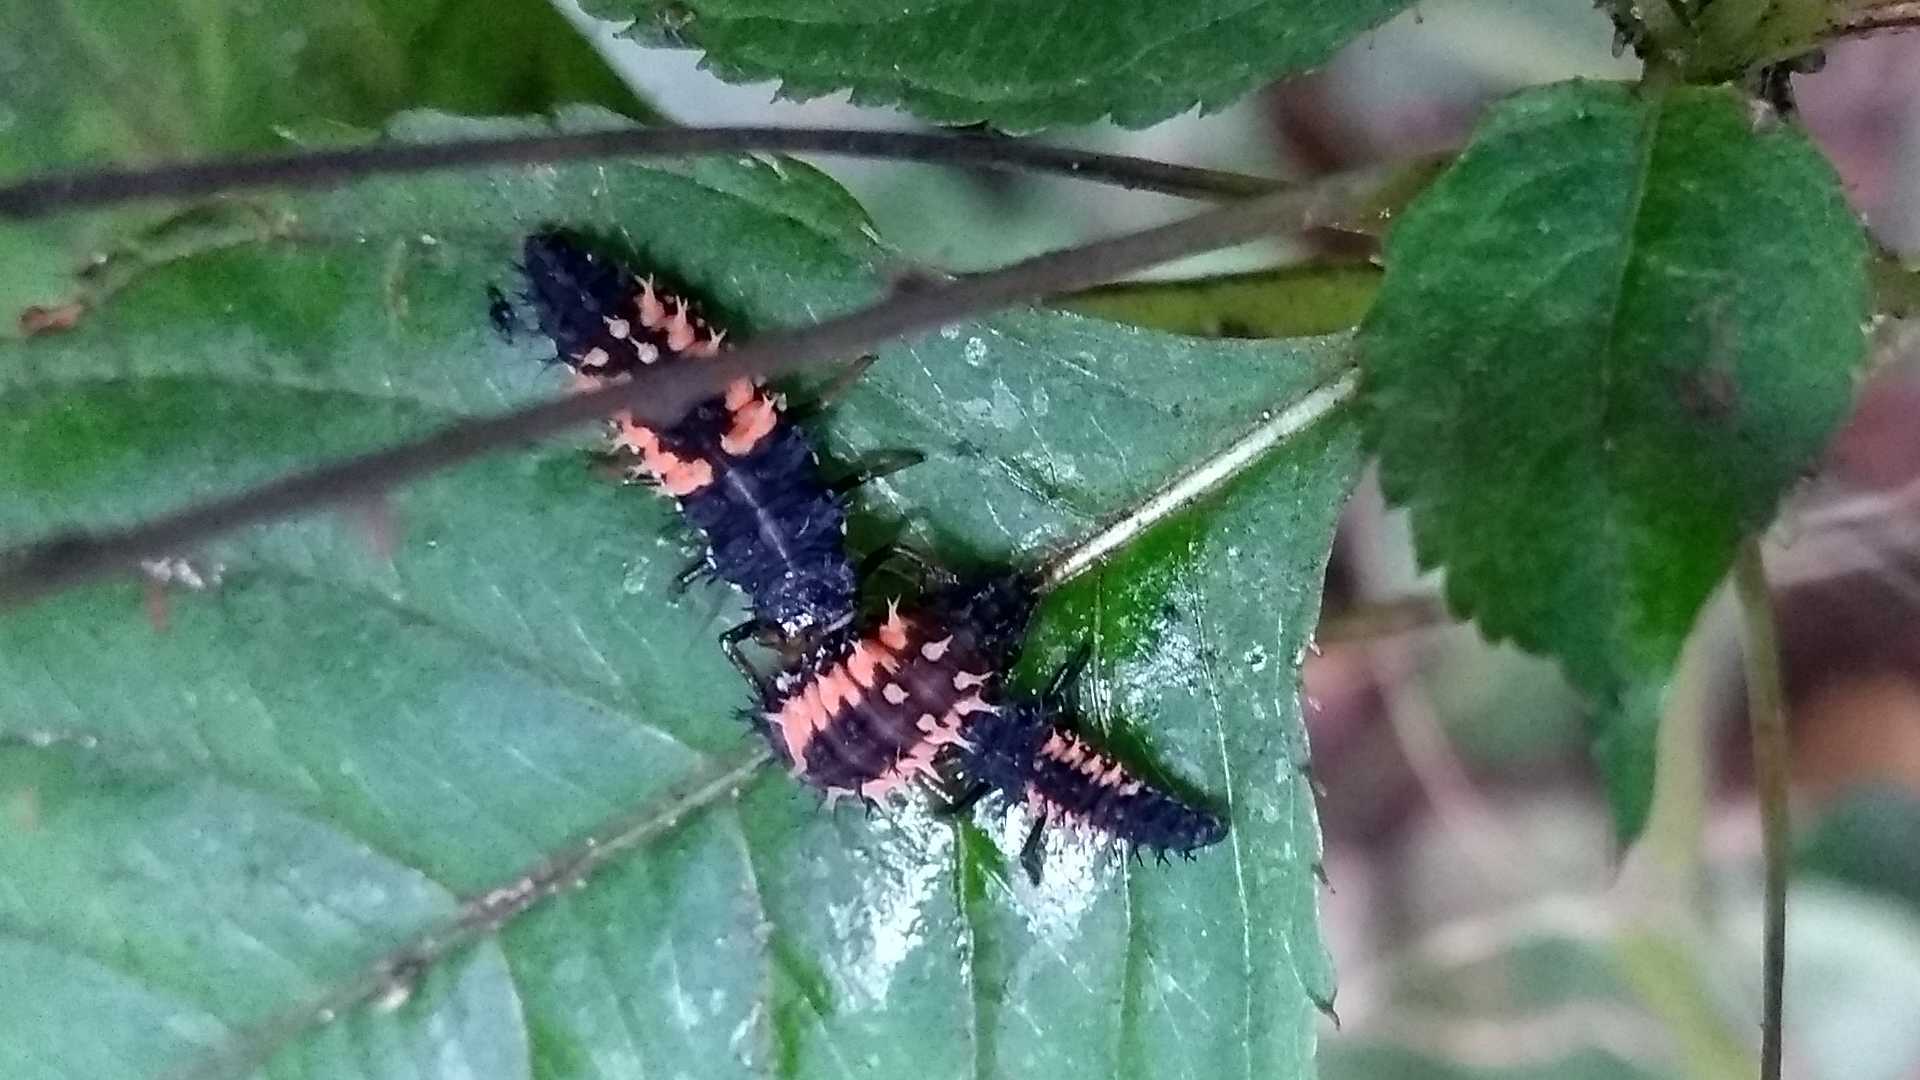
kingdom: Animalia
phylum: Arthropoda
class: Insecta
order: Coleoptera
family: Coccinellidae
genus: Harmonia
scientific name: Harmonia axyridis
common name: Harlequin ladybird
